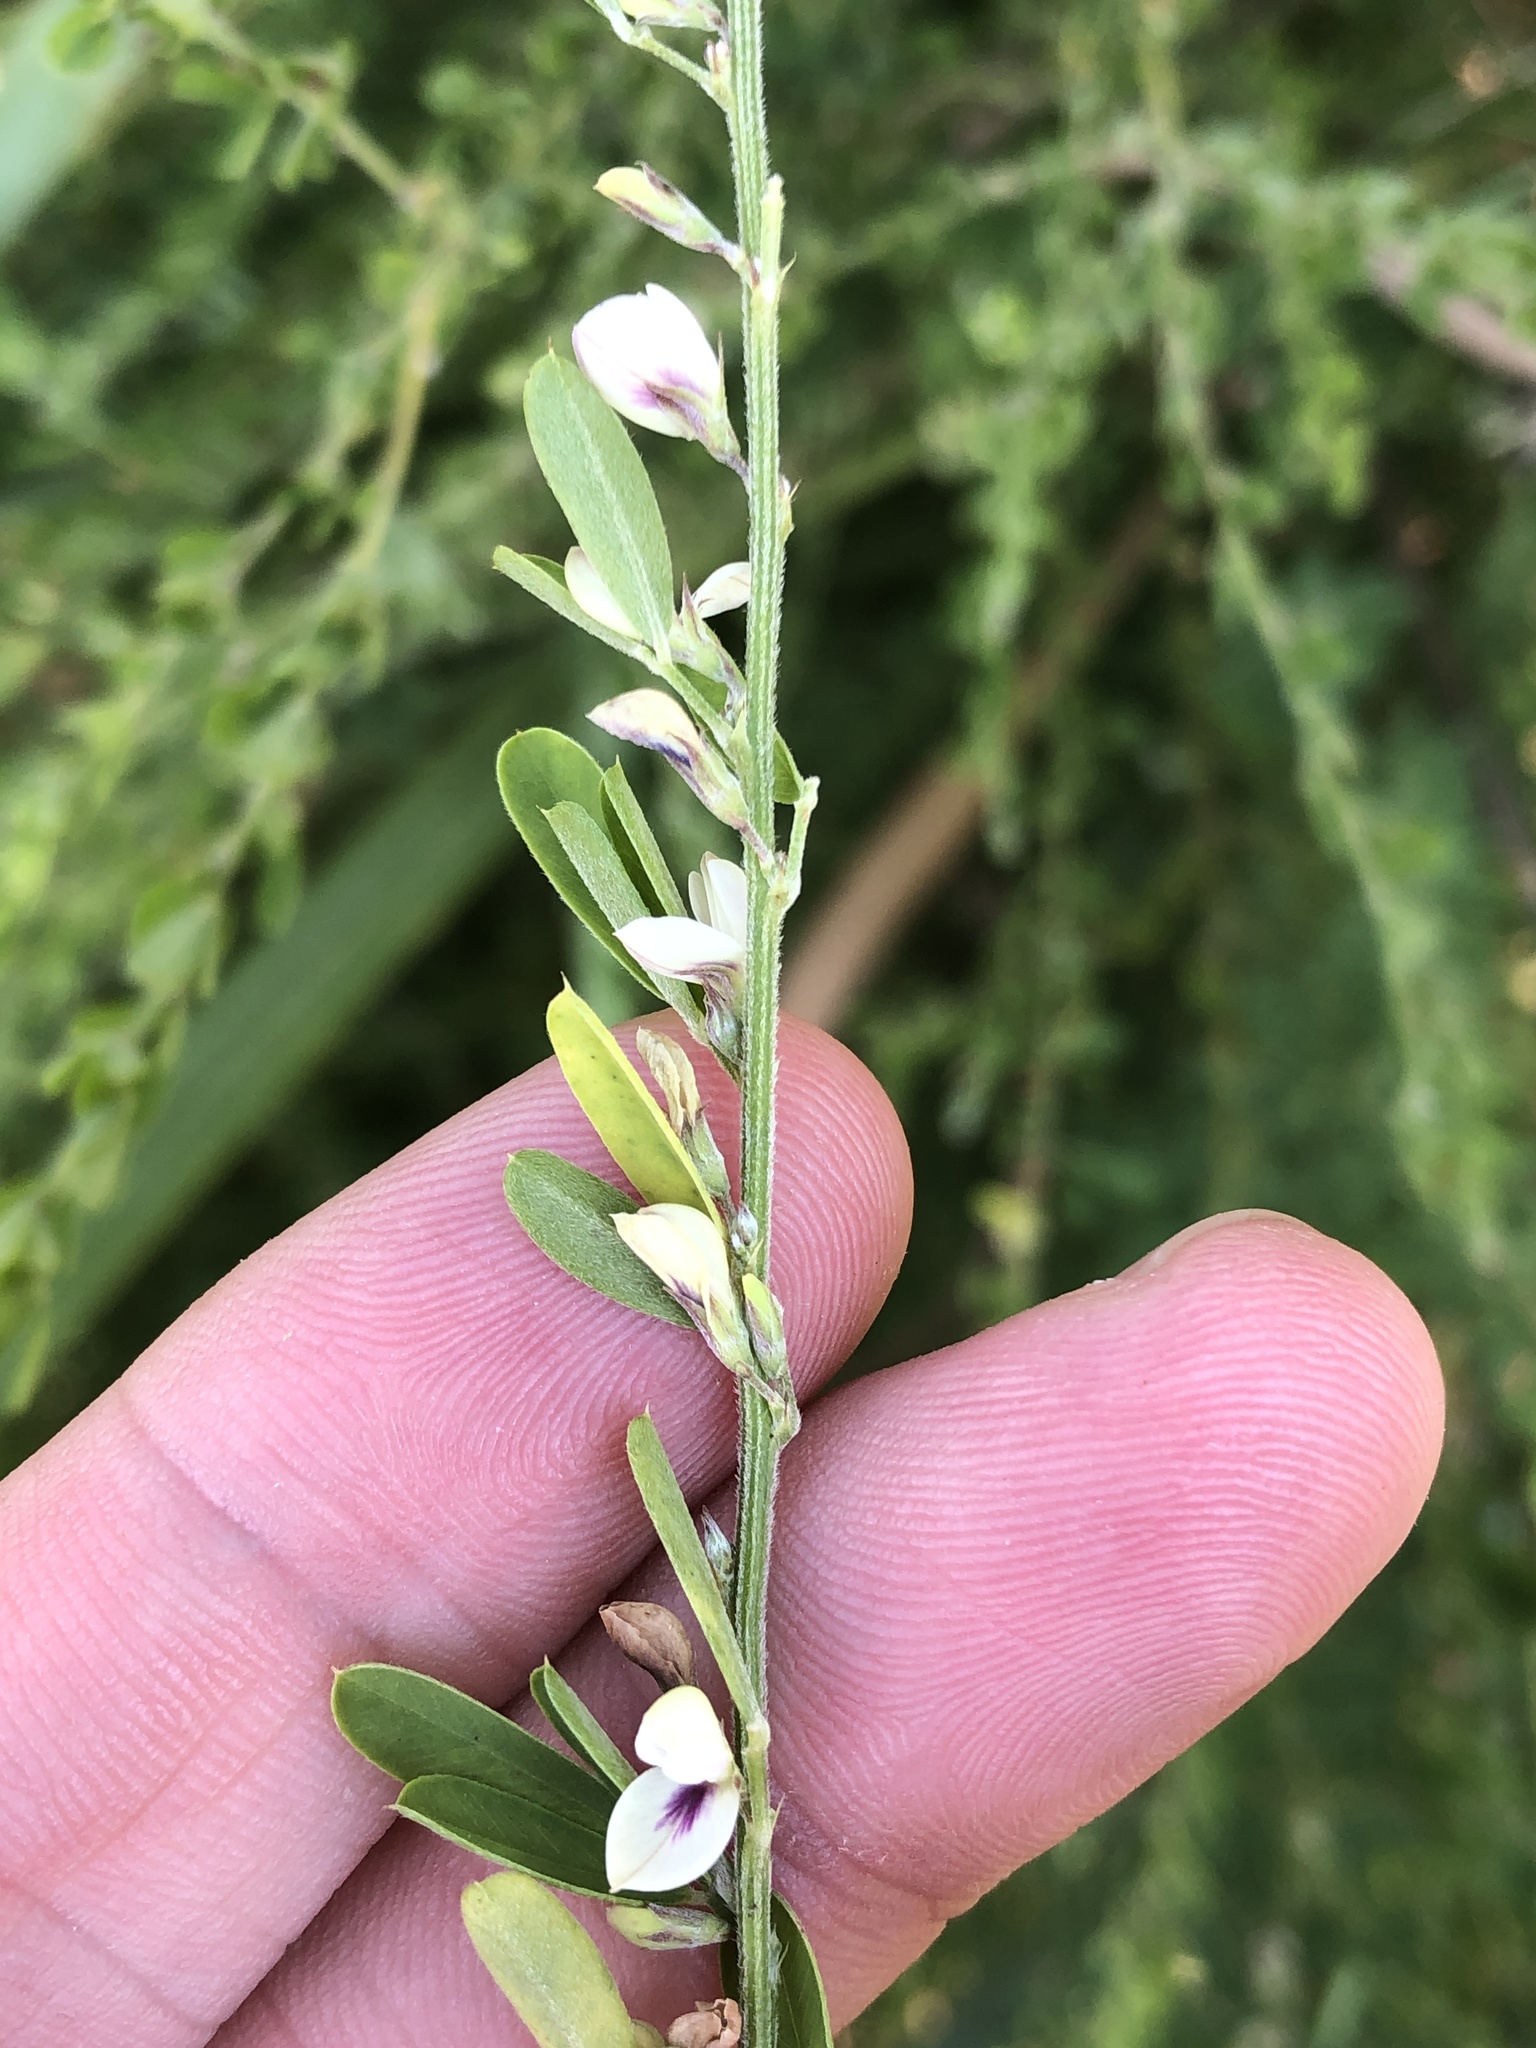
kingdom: Plantae
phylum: Tracheophyta
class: Magnoliopsida
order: Fabales
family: Fabaceae
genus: Lespedeza
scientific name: Lespedeza cuneata
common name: Chinese bush-clover
